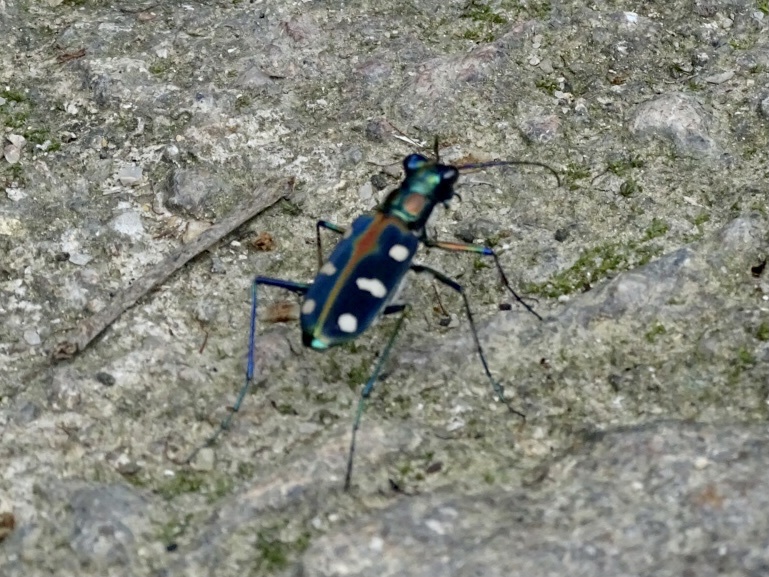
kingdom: Animalia
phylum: Arthropoda
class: Insecta
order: Coleoptera
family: Carabidae
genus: Cicindela
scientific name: Cicindela juxtata
